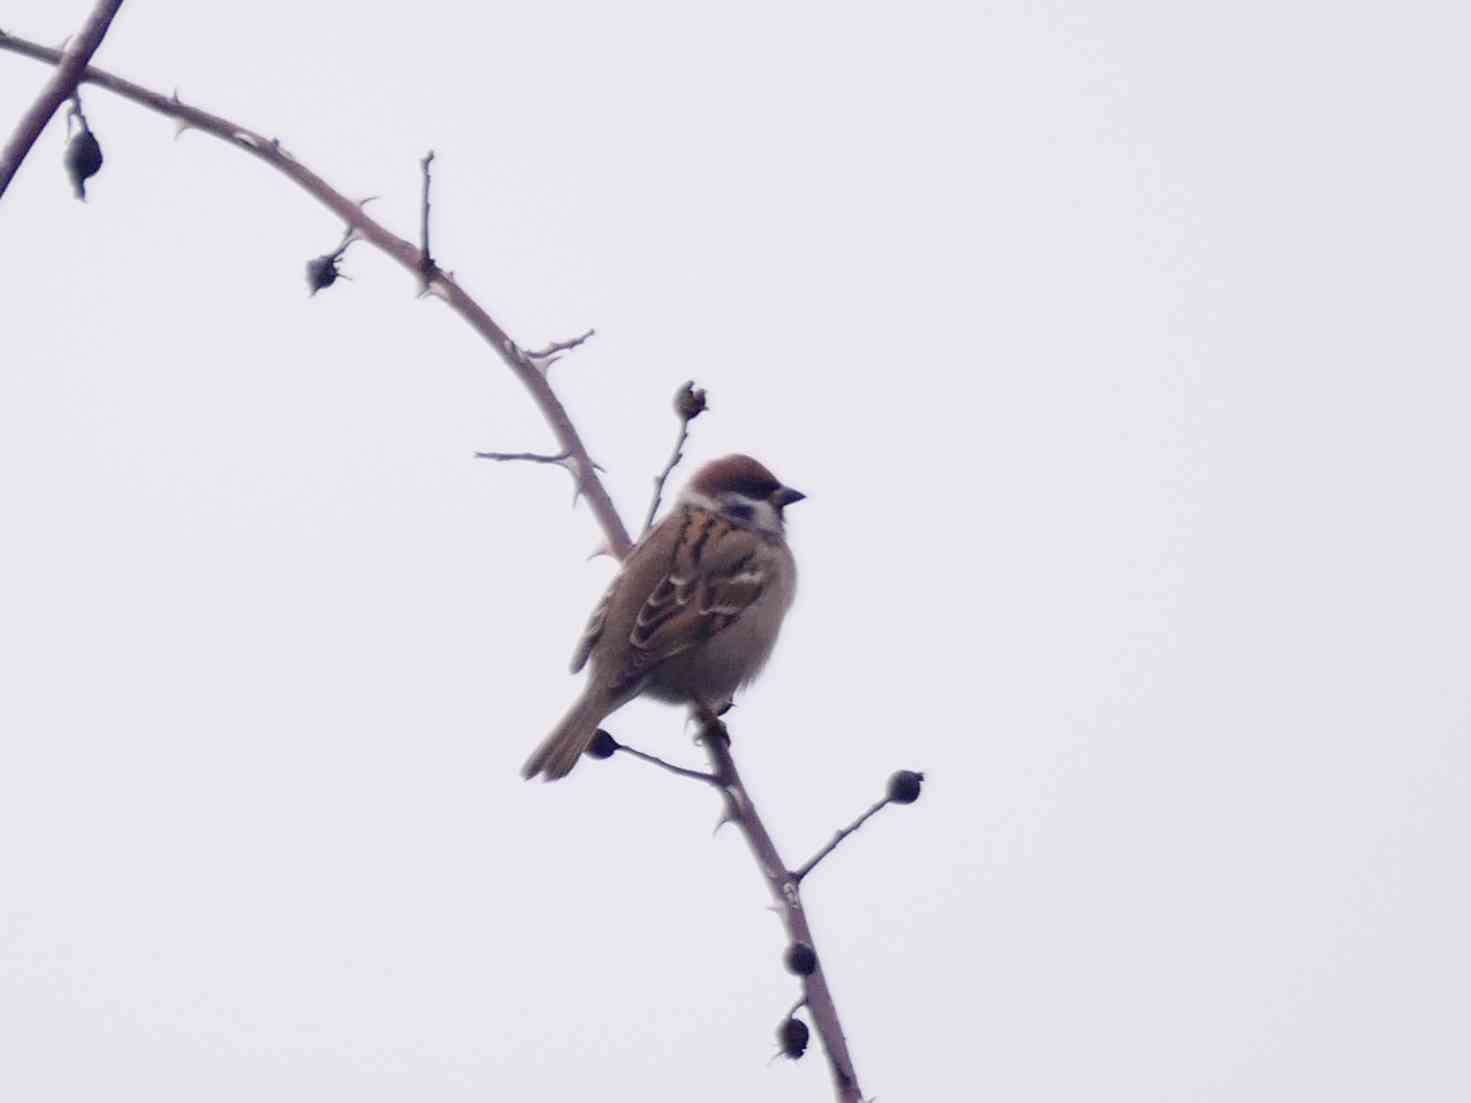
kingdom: Animalia
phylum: Chordata
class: Aves
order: Passeriformes
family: Passeridae
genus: Passer
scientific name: Passer montanus
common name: Eurasian tree sparrow
